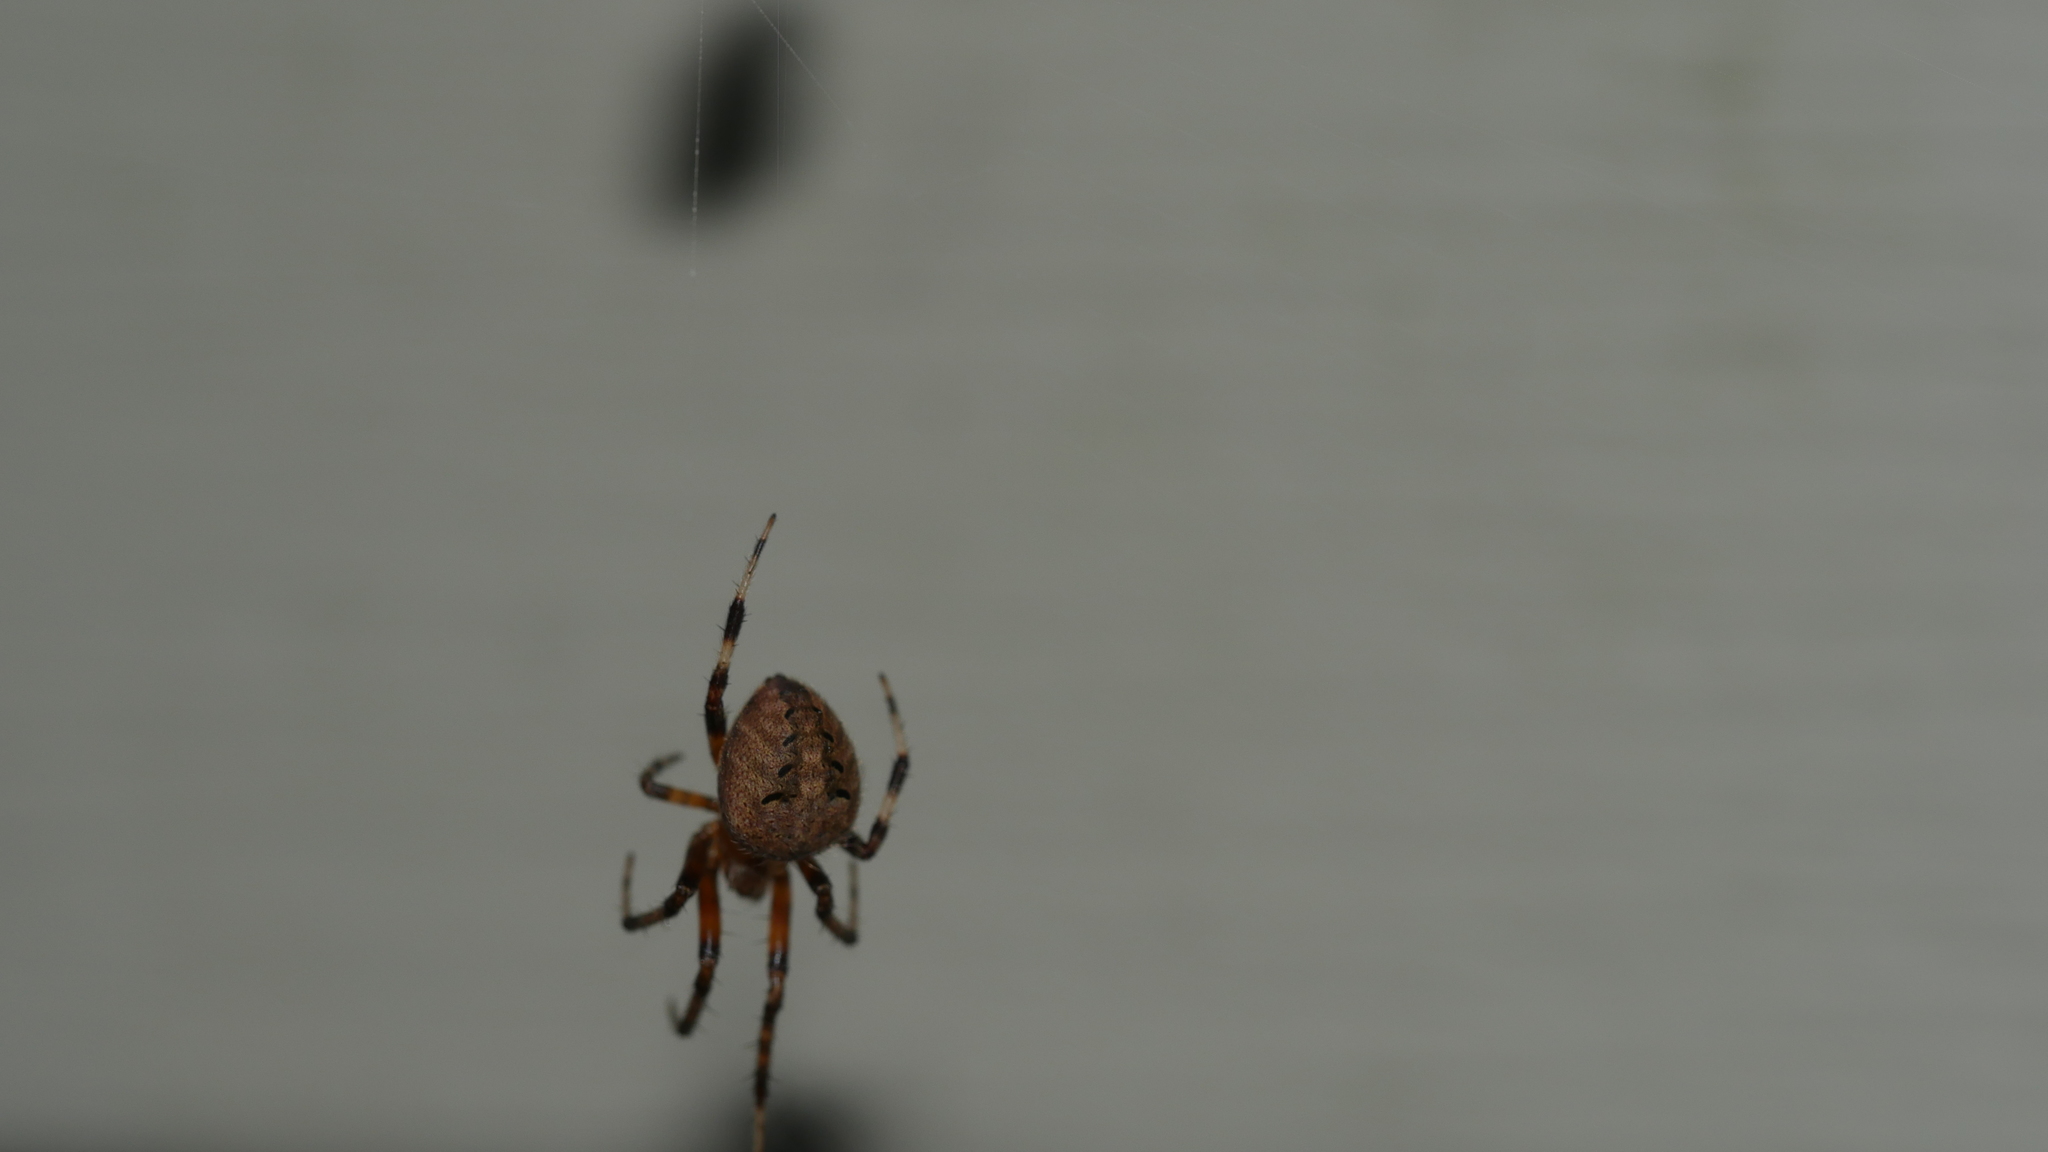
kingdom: Animalia
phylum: Arthropoda
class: Arachnida
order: Araneae
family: Araneidae
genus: Neoscona
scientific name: Neoscona arabesca
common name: Orb weavers
